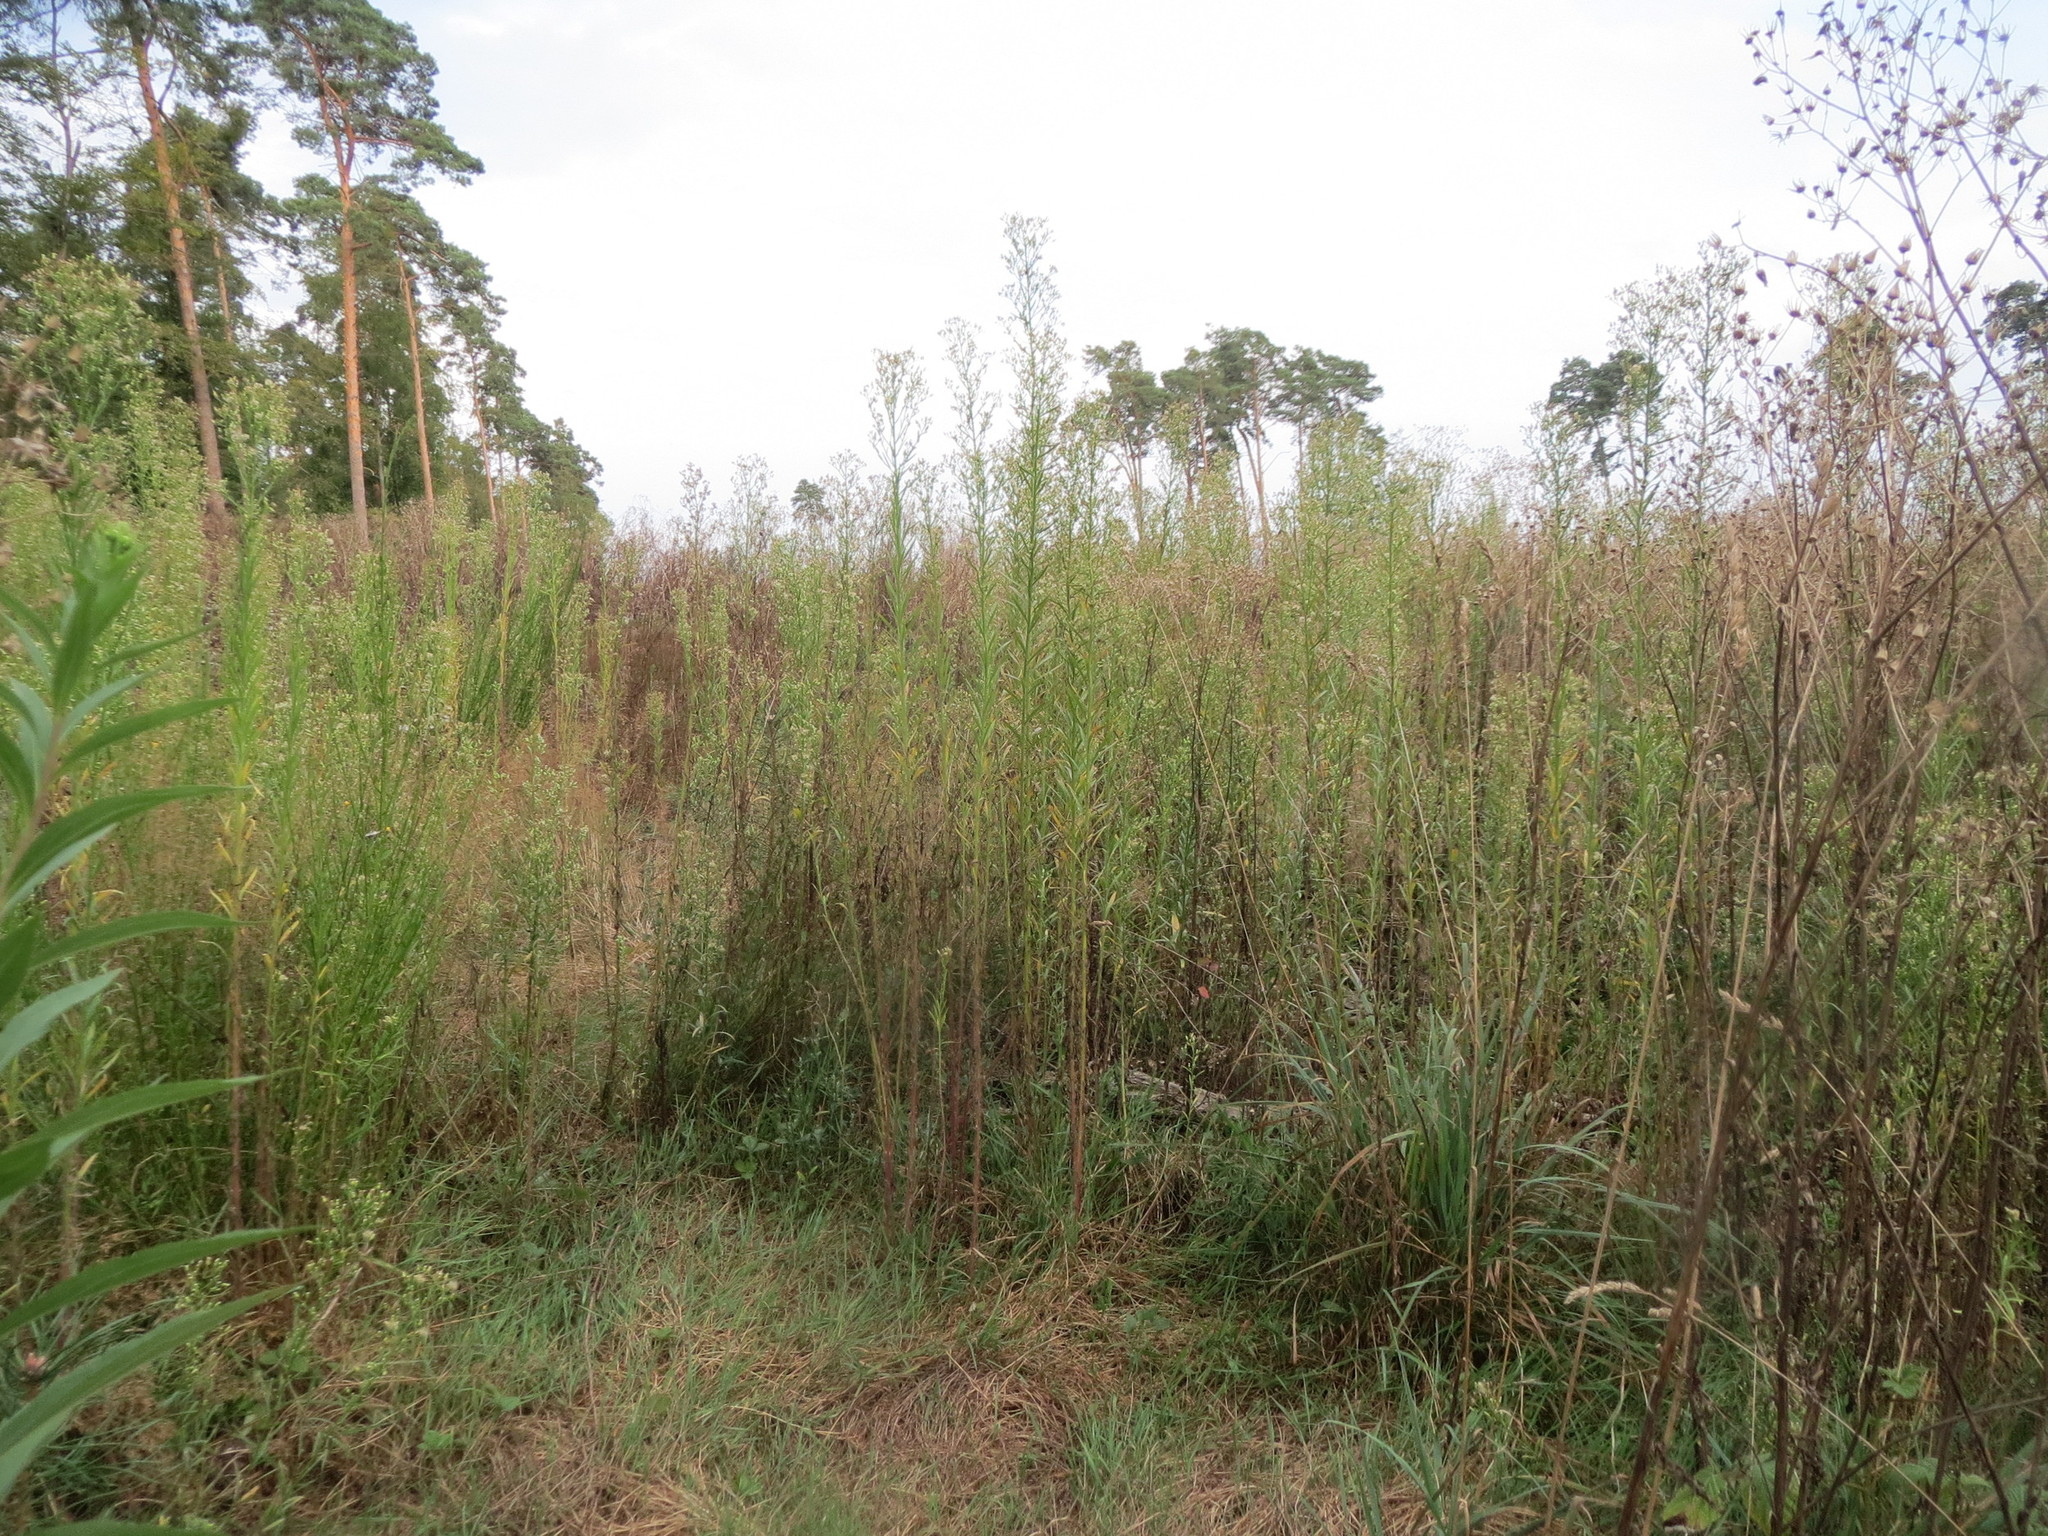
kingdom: Plantae
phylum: Tracheophyta
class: Magnoliopsida
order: Asterales
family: Asteraceae
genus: Erigeron
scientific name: Erigeron canadensis
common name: Canadian fleabane
